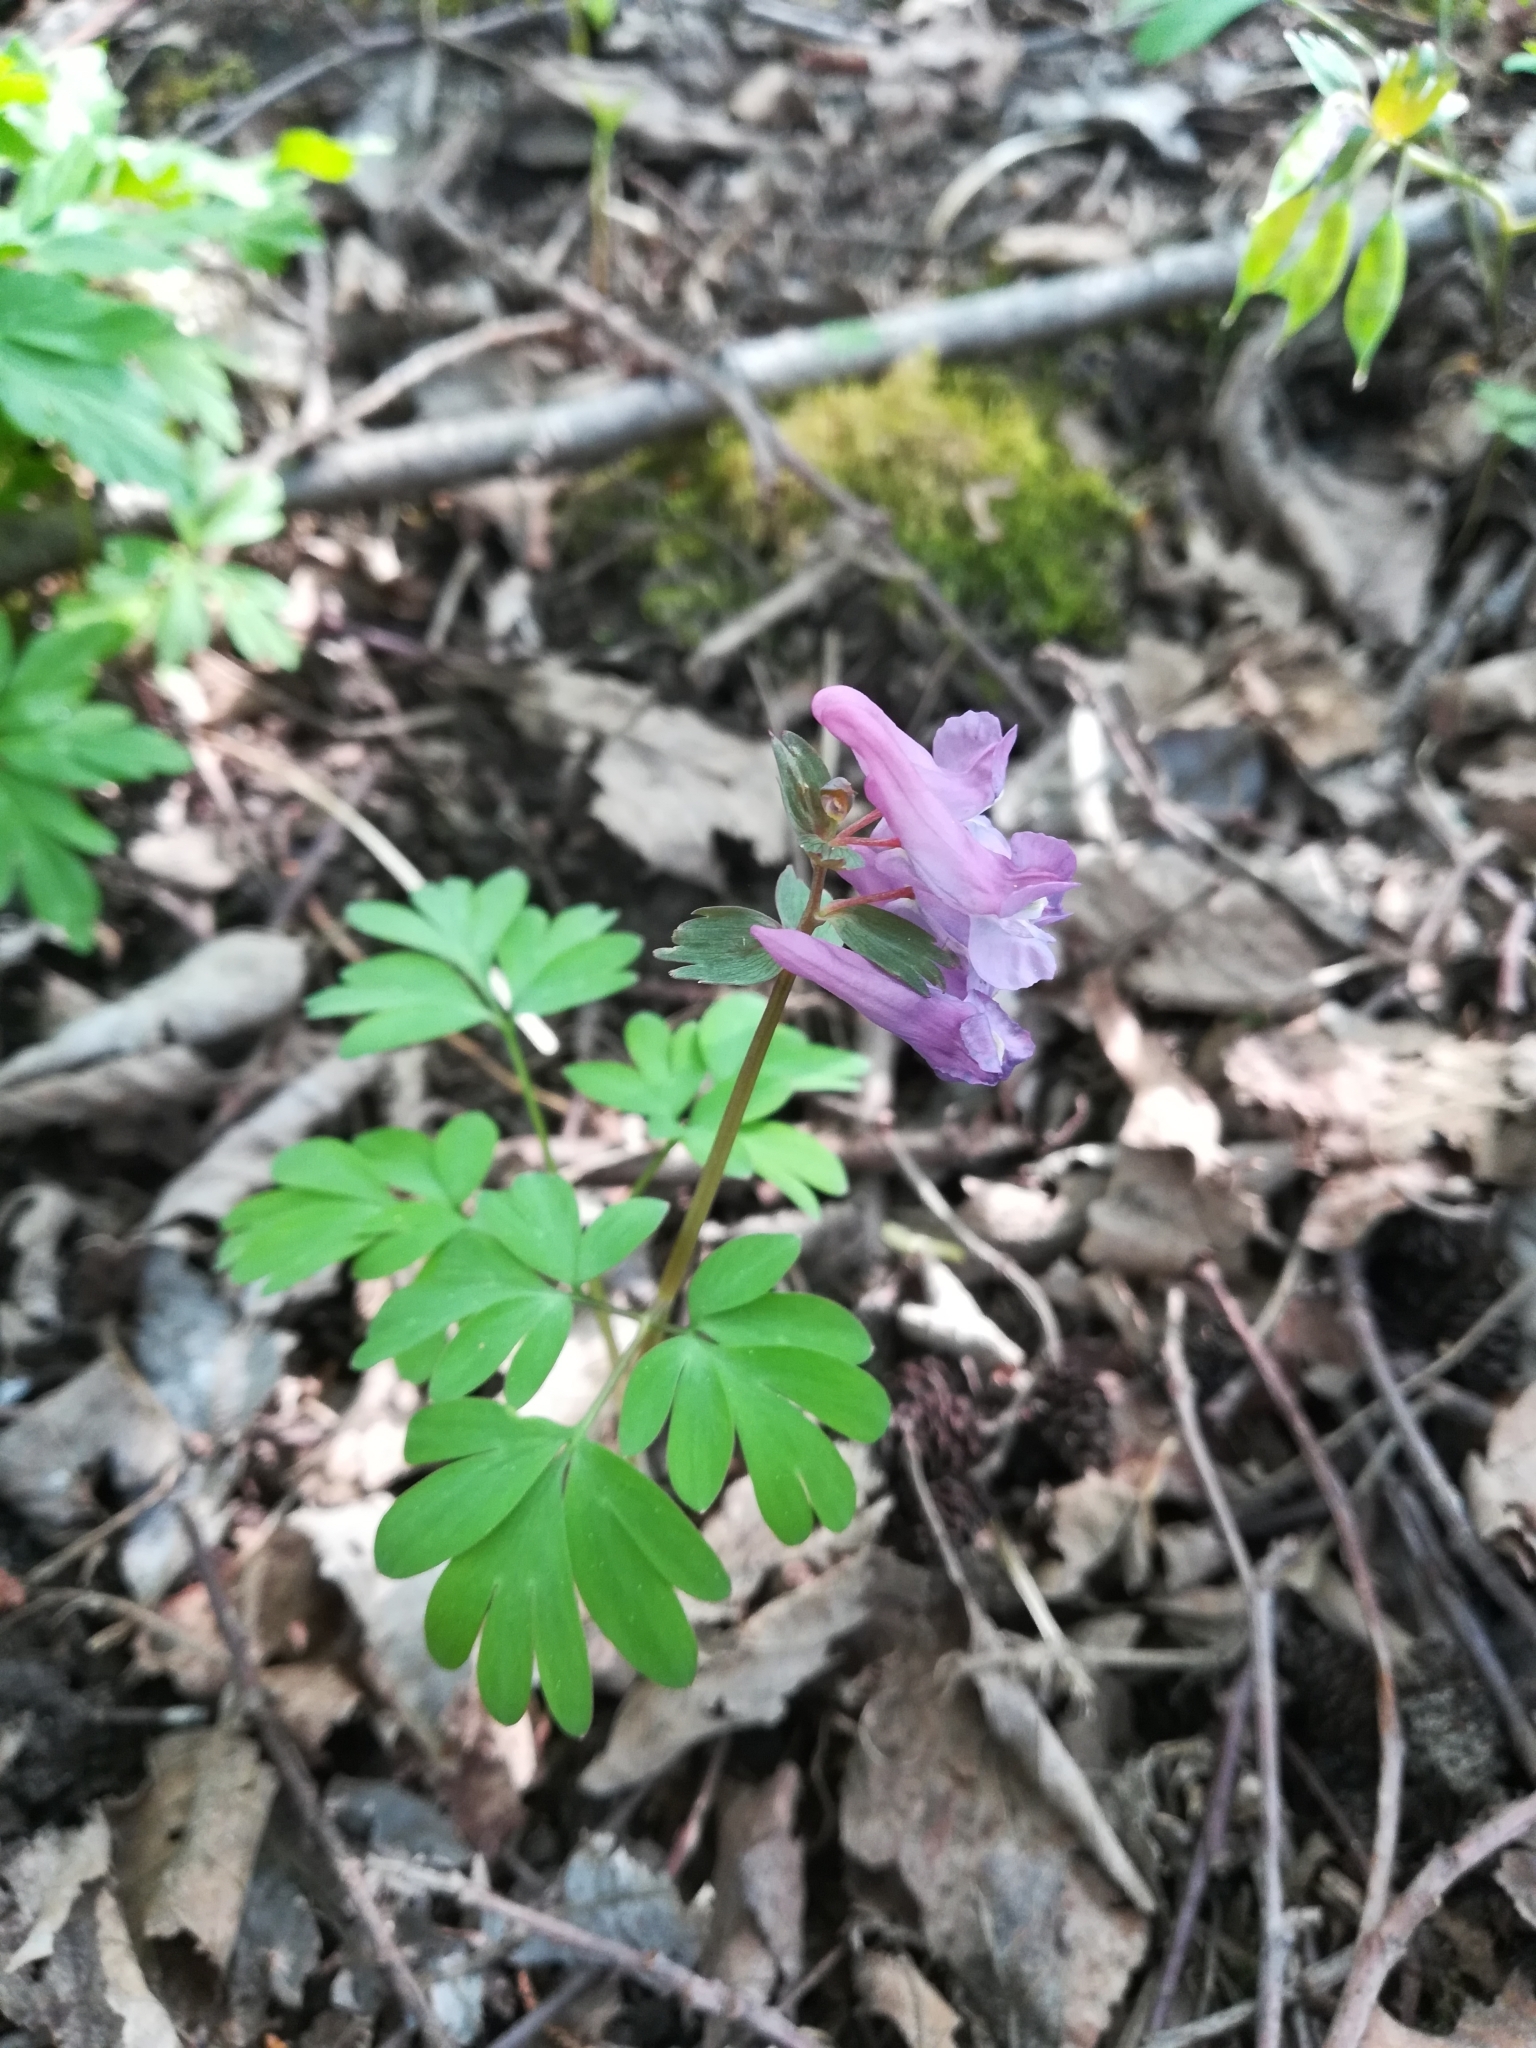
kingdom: Plantae
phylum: Tracheophyta
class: Magnoliopsida
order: Ranunculales
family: Papaveraceae
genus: Corydalis
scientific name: Corydalis solida
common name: Bird-in-a-bush
